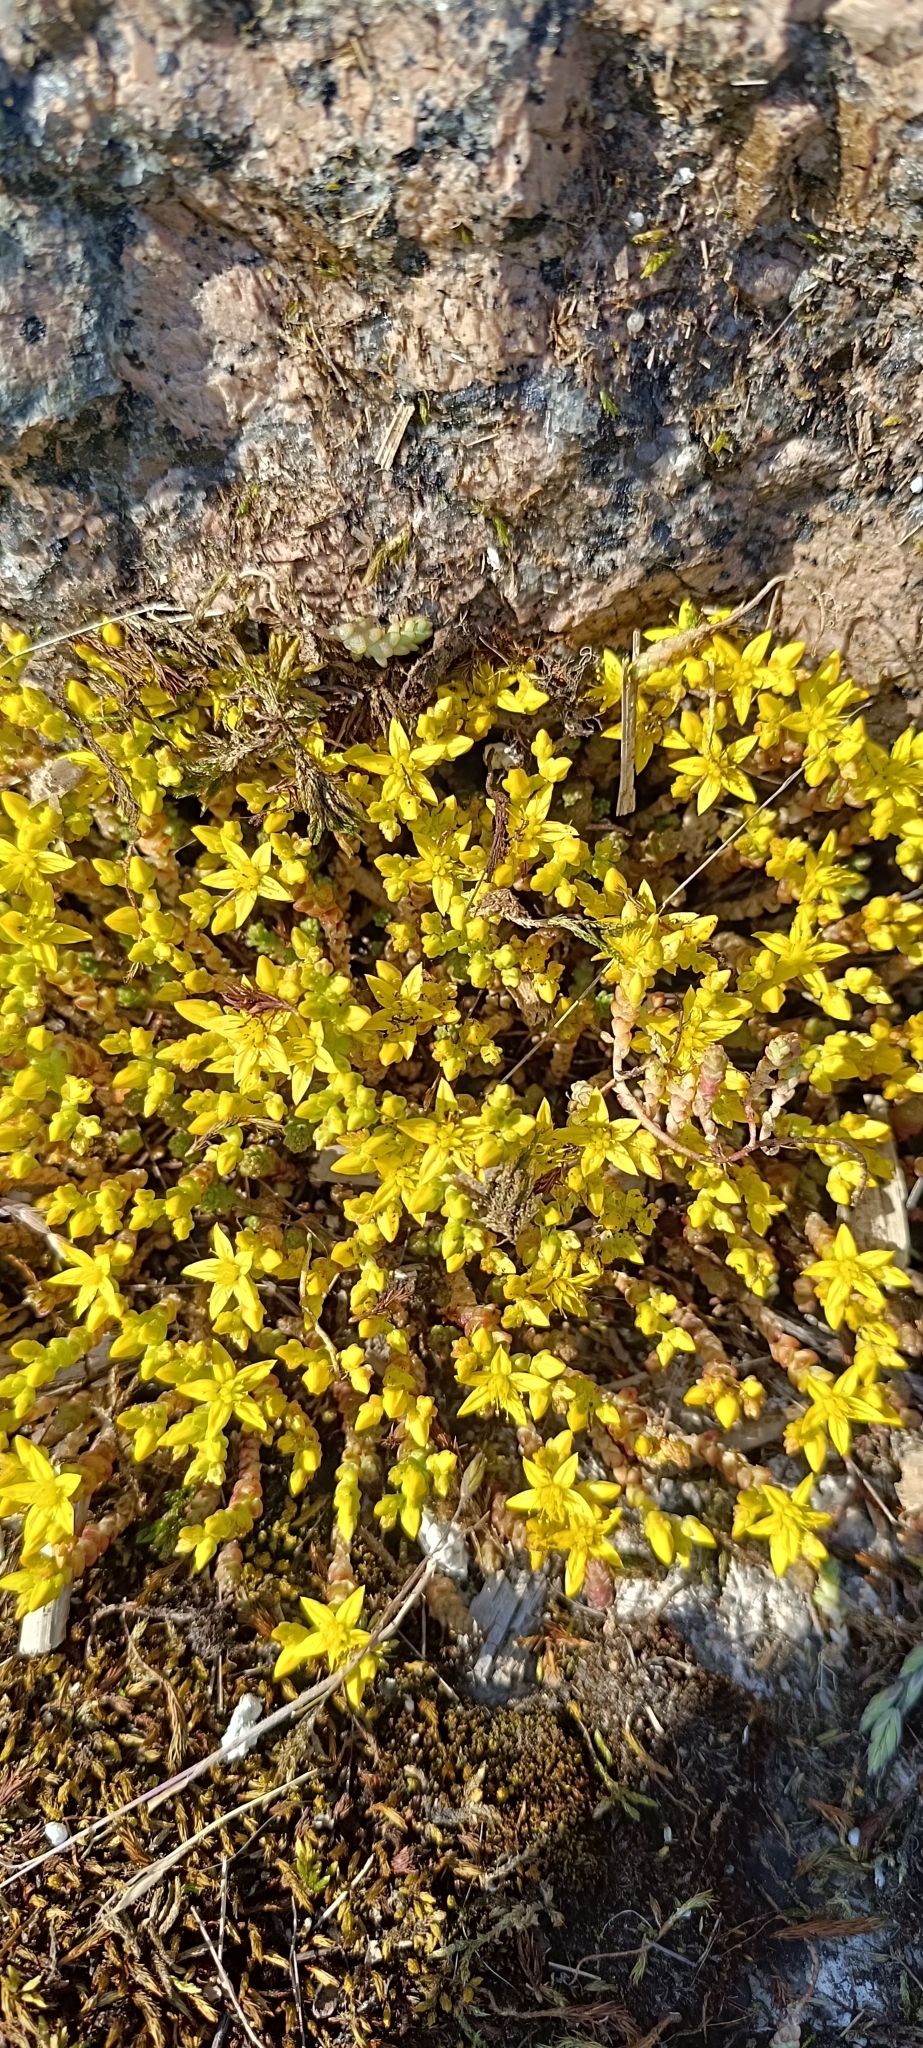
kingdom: Plantae
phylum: Tracheophyta
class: Magnoliopsida
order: Saxifragales
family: Crassulaceae
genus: Sedum
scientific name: Sedum acre
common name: Biting stonecrop
